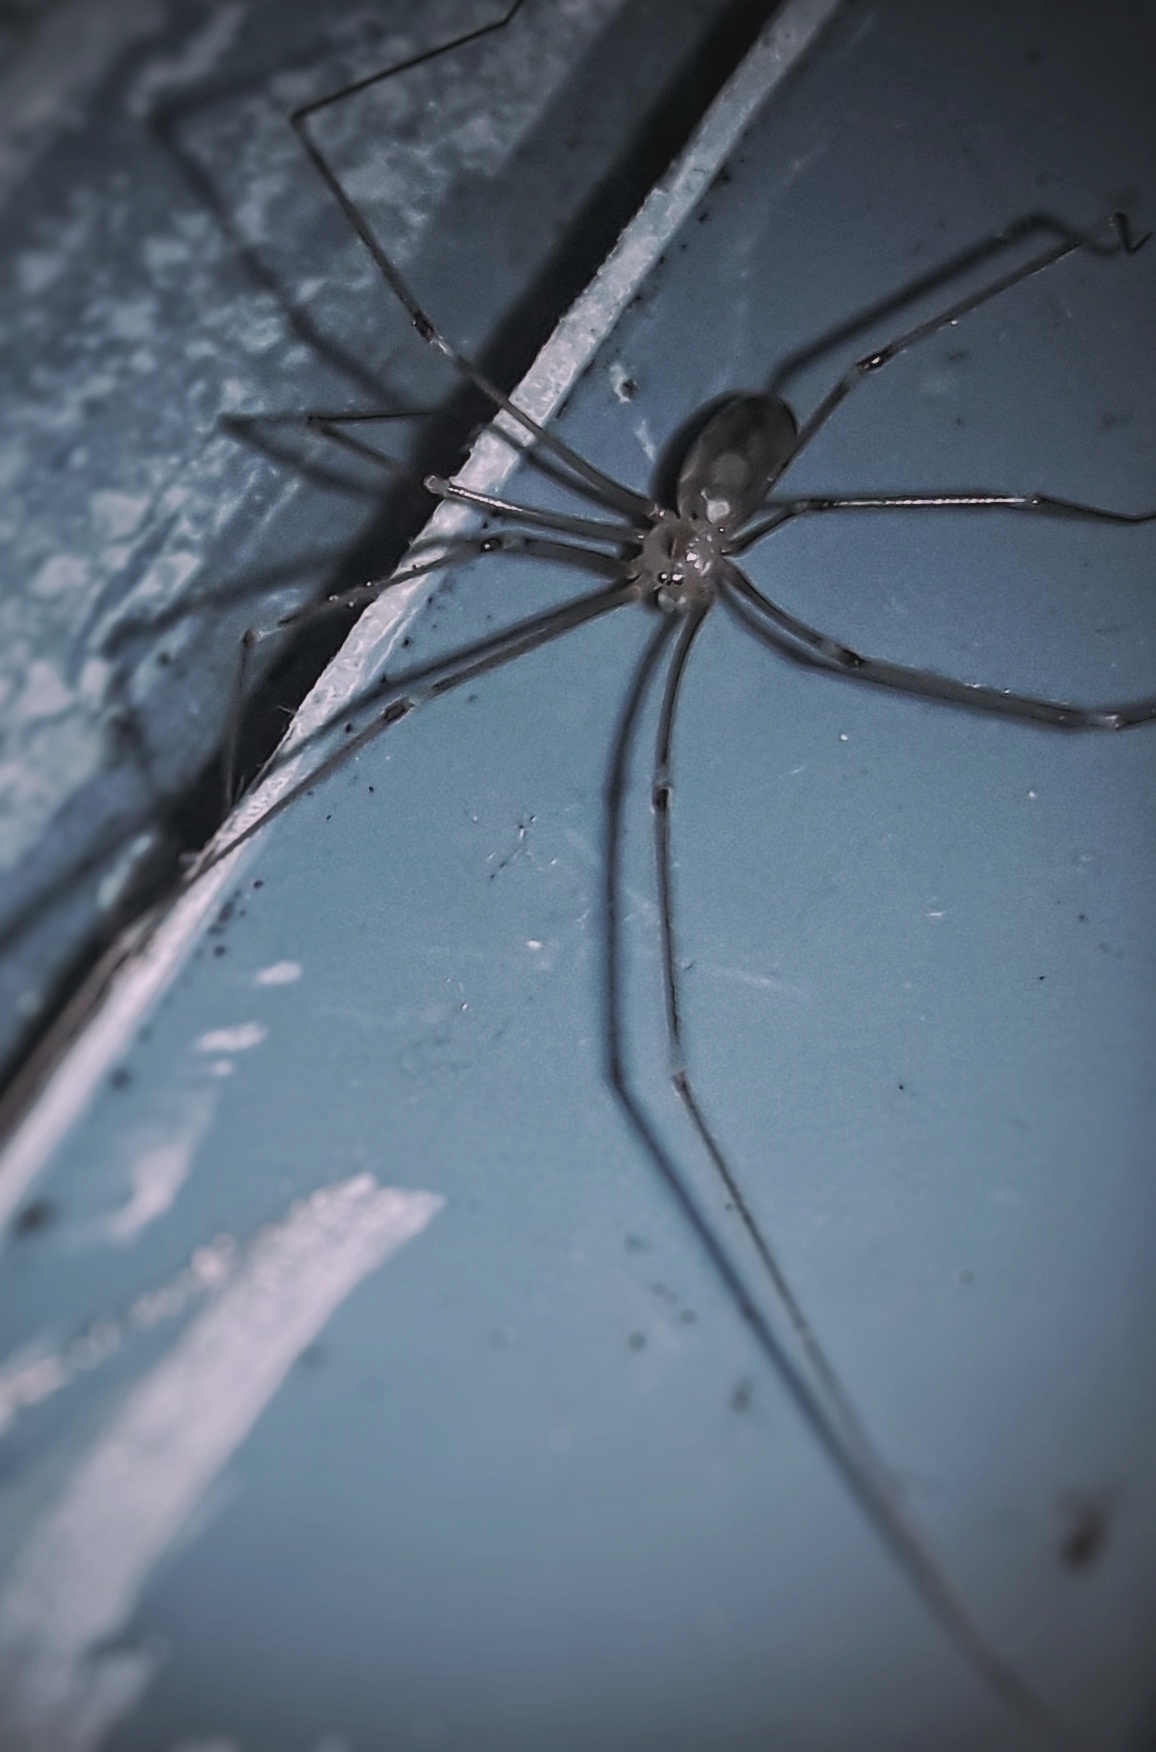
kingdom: Animalia
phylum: Arthropoda
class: Arachnida
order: Araneae
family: Pholcidae
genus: Pholcus
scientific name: Pholcus phalangioides
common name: Longbodied cellar spider
